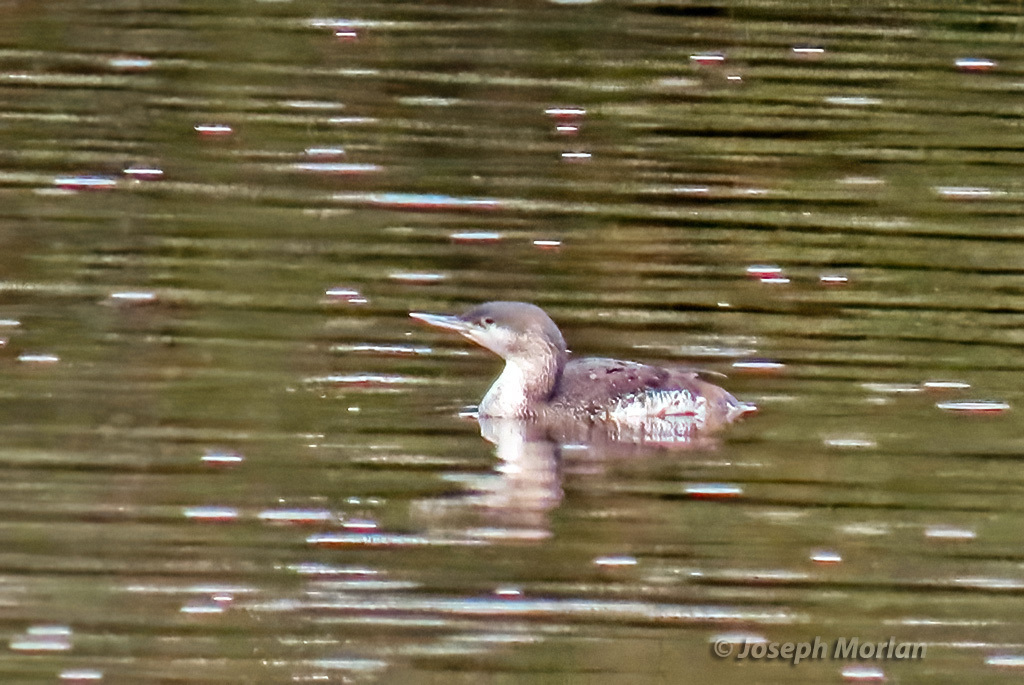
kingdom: Animalia
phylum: Chordata
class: Aves
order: Gaviiformes
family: Gaviidae
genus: Gavia
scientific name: Gavia stellata
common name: Red-throated loon
